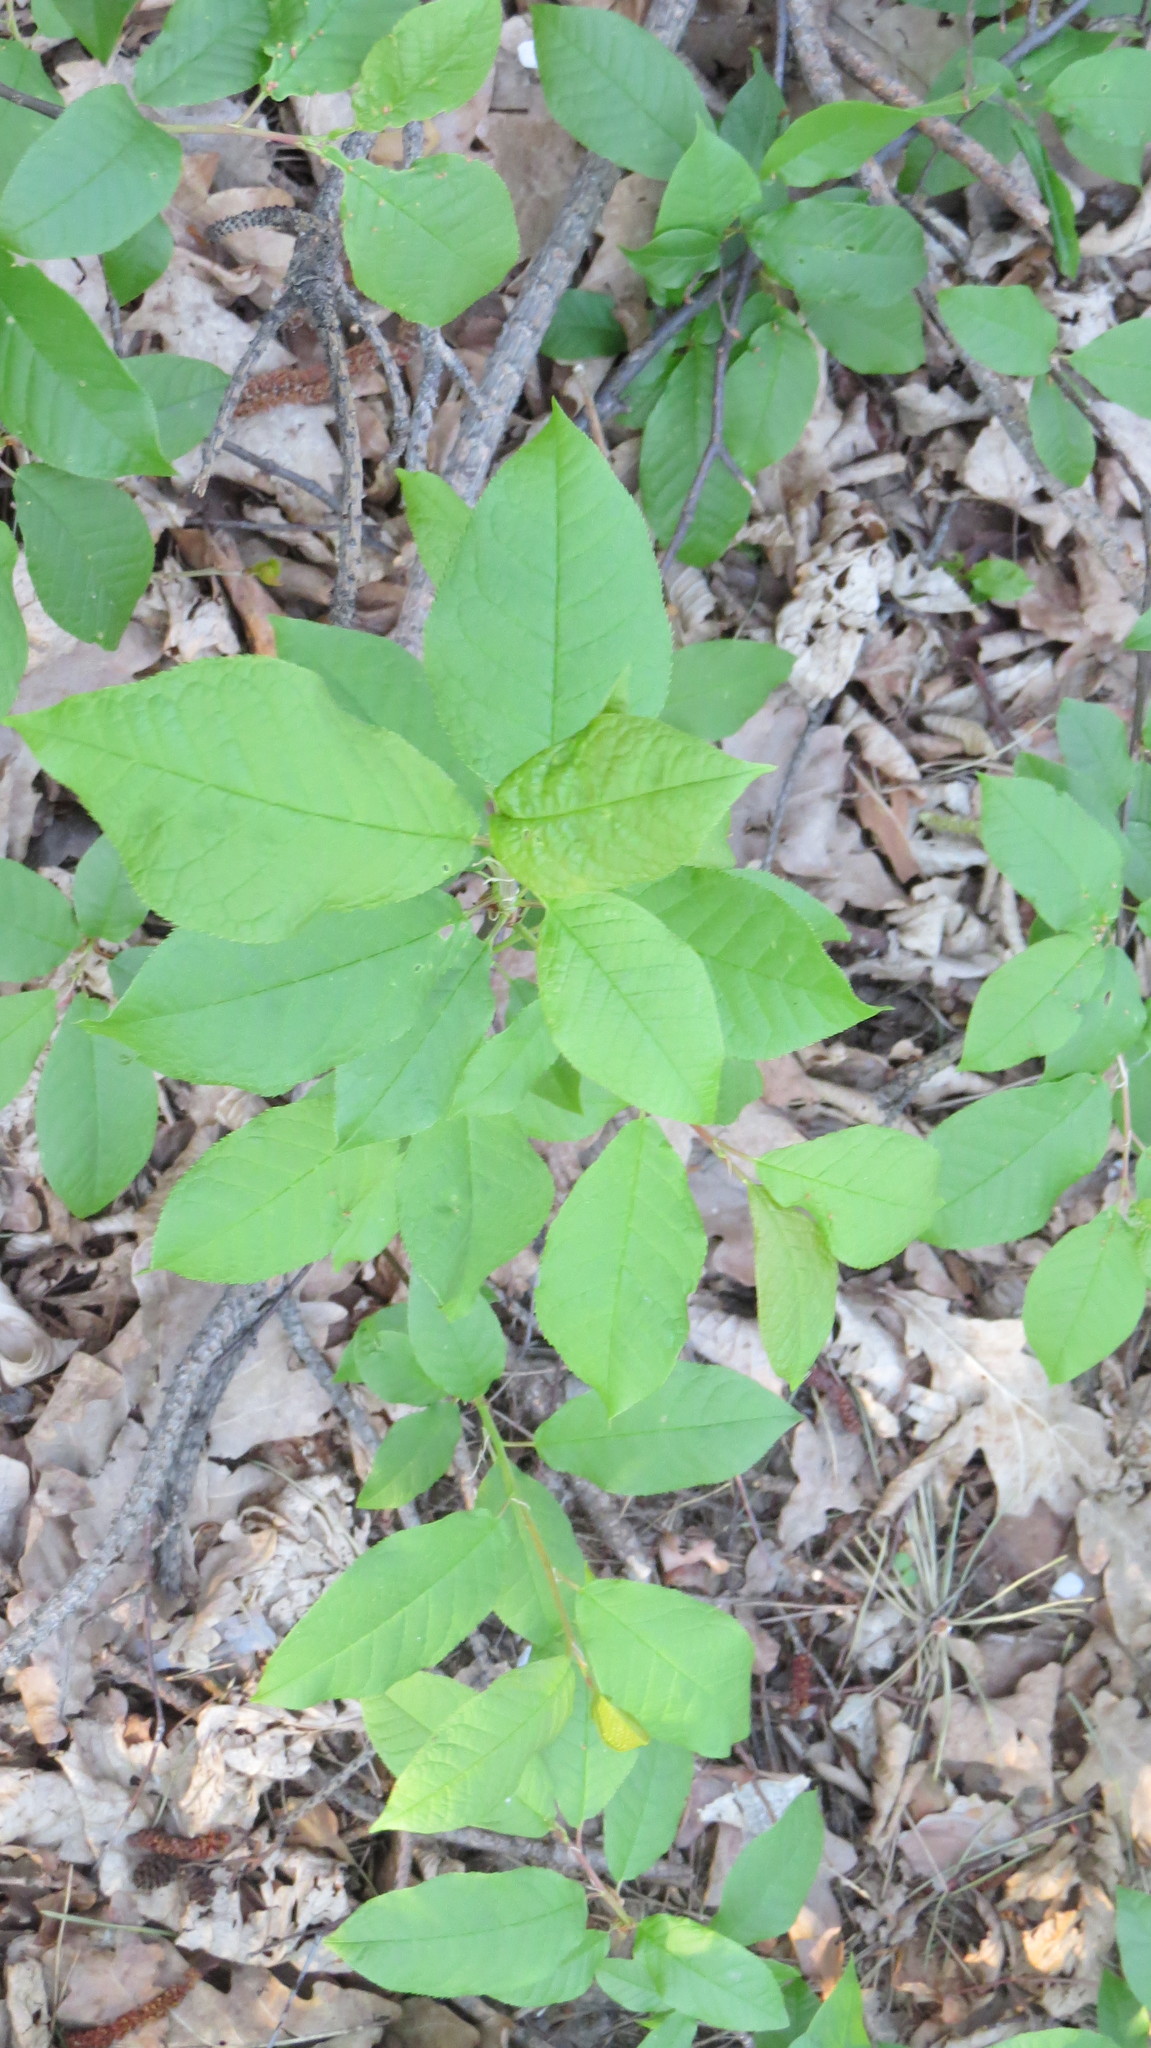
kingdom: Plantae
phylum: Tracheophyta
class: Magnoliopsida
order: Rosales
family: Rosaceae
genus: Prunus
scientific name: Prunus padus
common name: Bird cherry
